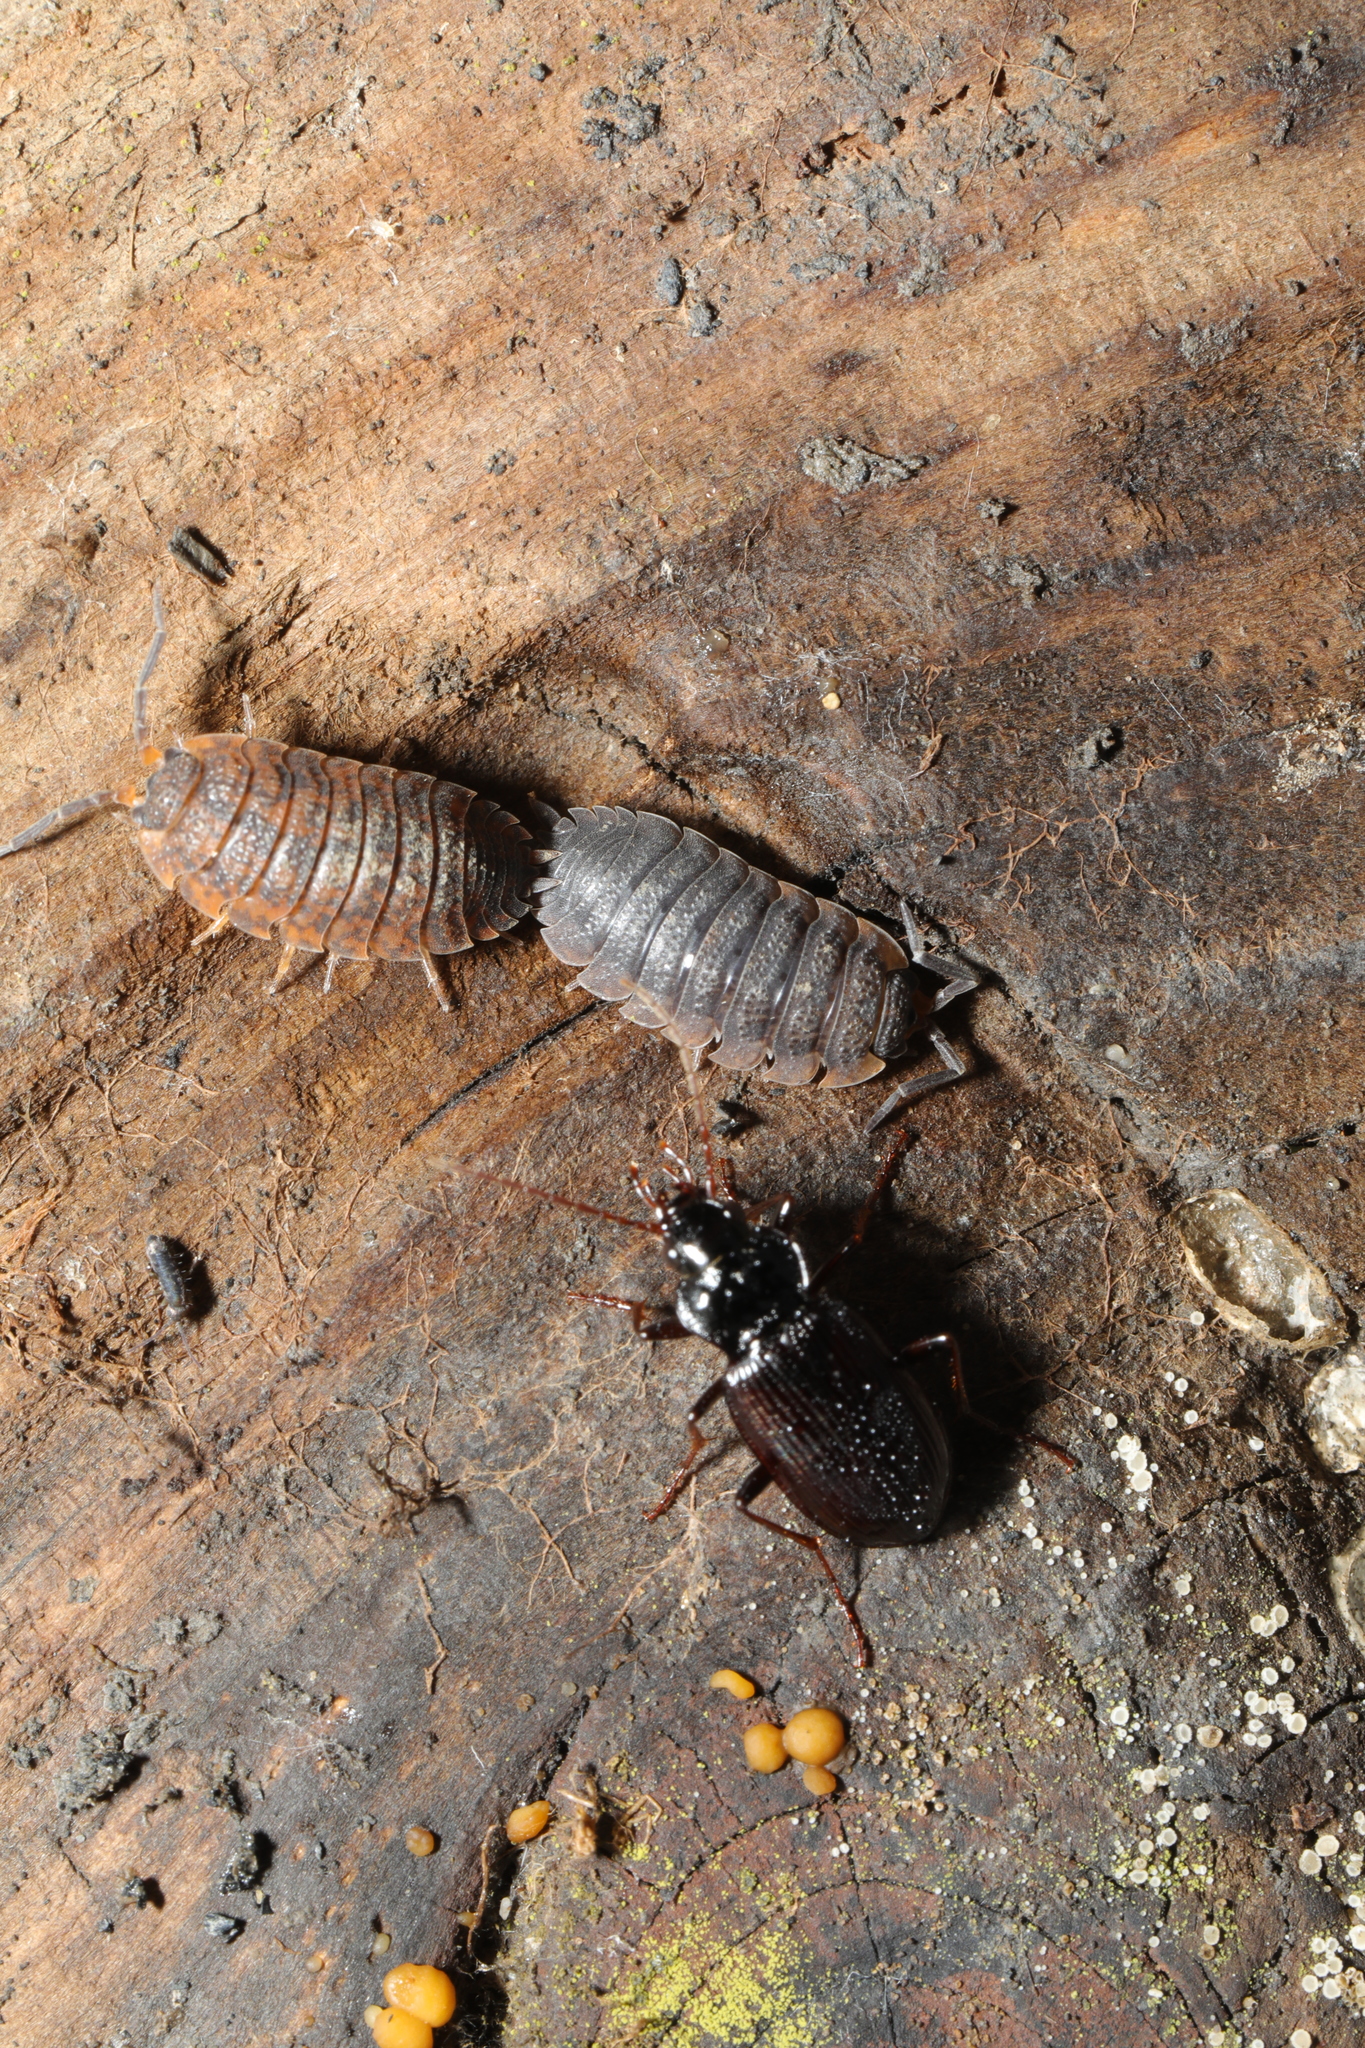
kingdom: Animalia
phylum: Arthropoda
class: Insecta
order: Coleoptera
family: Carabidae
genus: Nebria
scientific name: Nebria brevicollis
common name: Short-necked gazelle beetle
